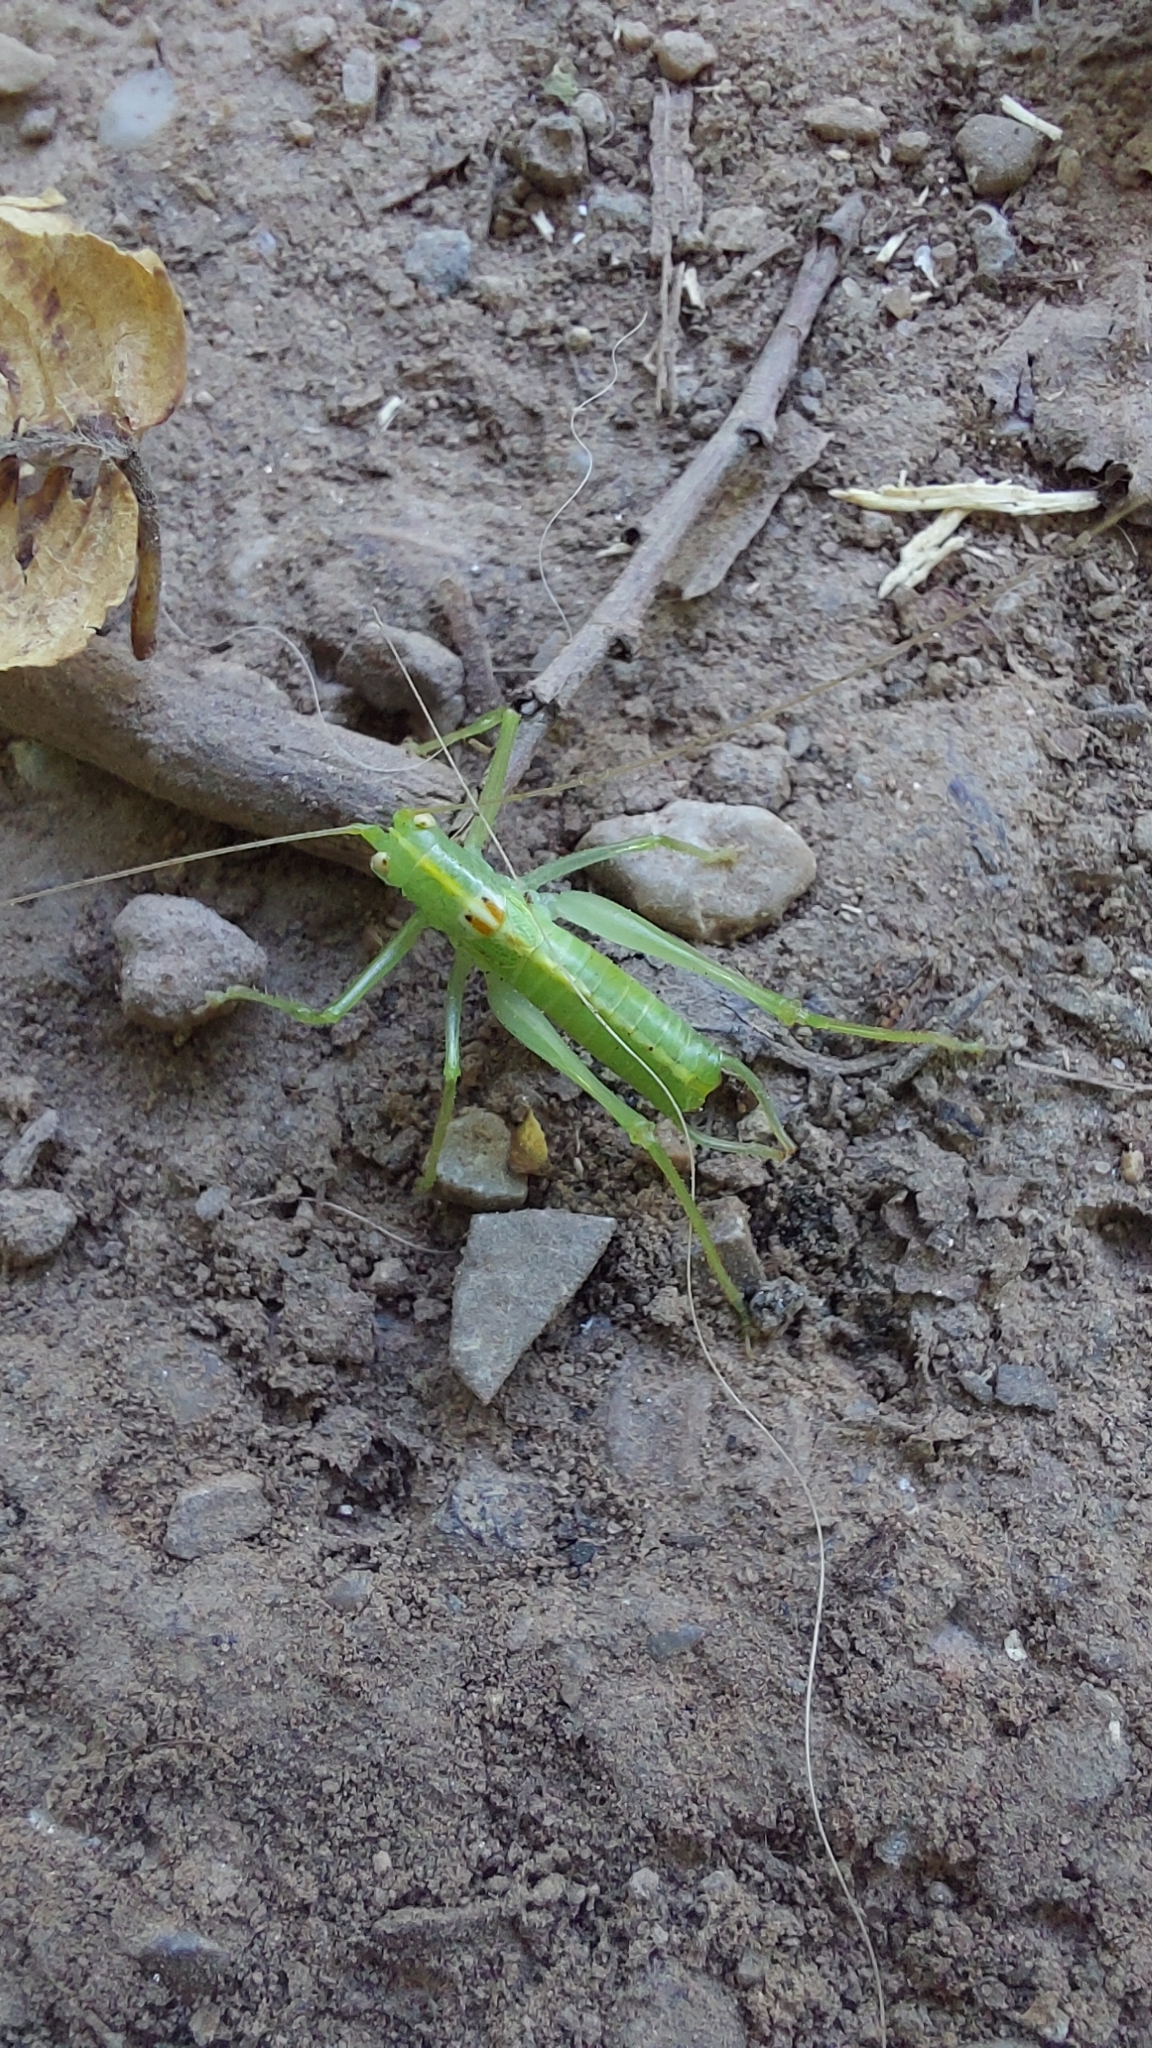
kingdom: Animalia
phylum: Arthropoda
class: Insecta
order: Orthoptera
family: Tettigoniidae
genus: Meconema
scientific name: Meconema meridionale
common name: Southern oak bush-cricket
